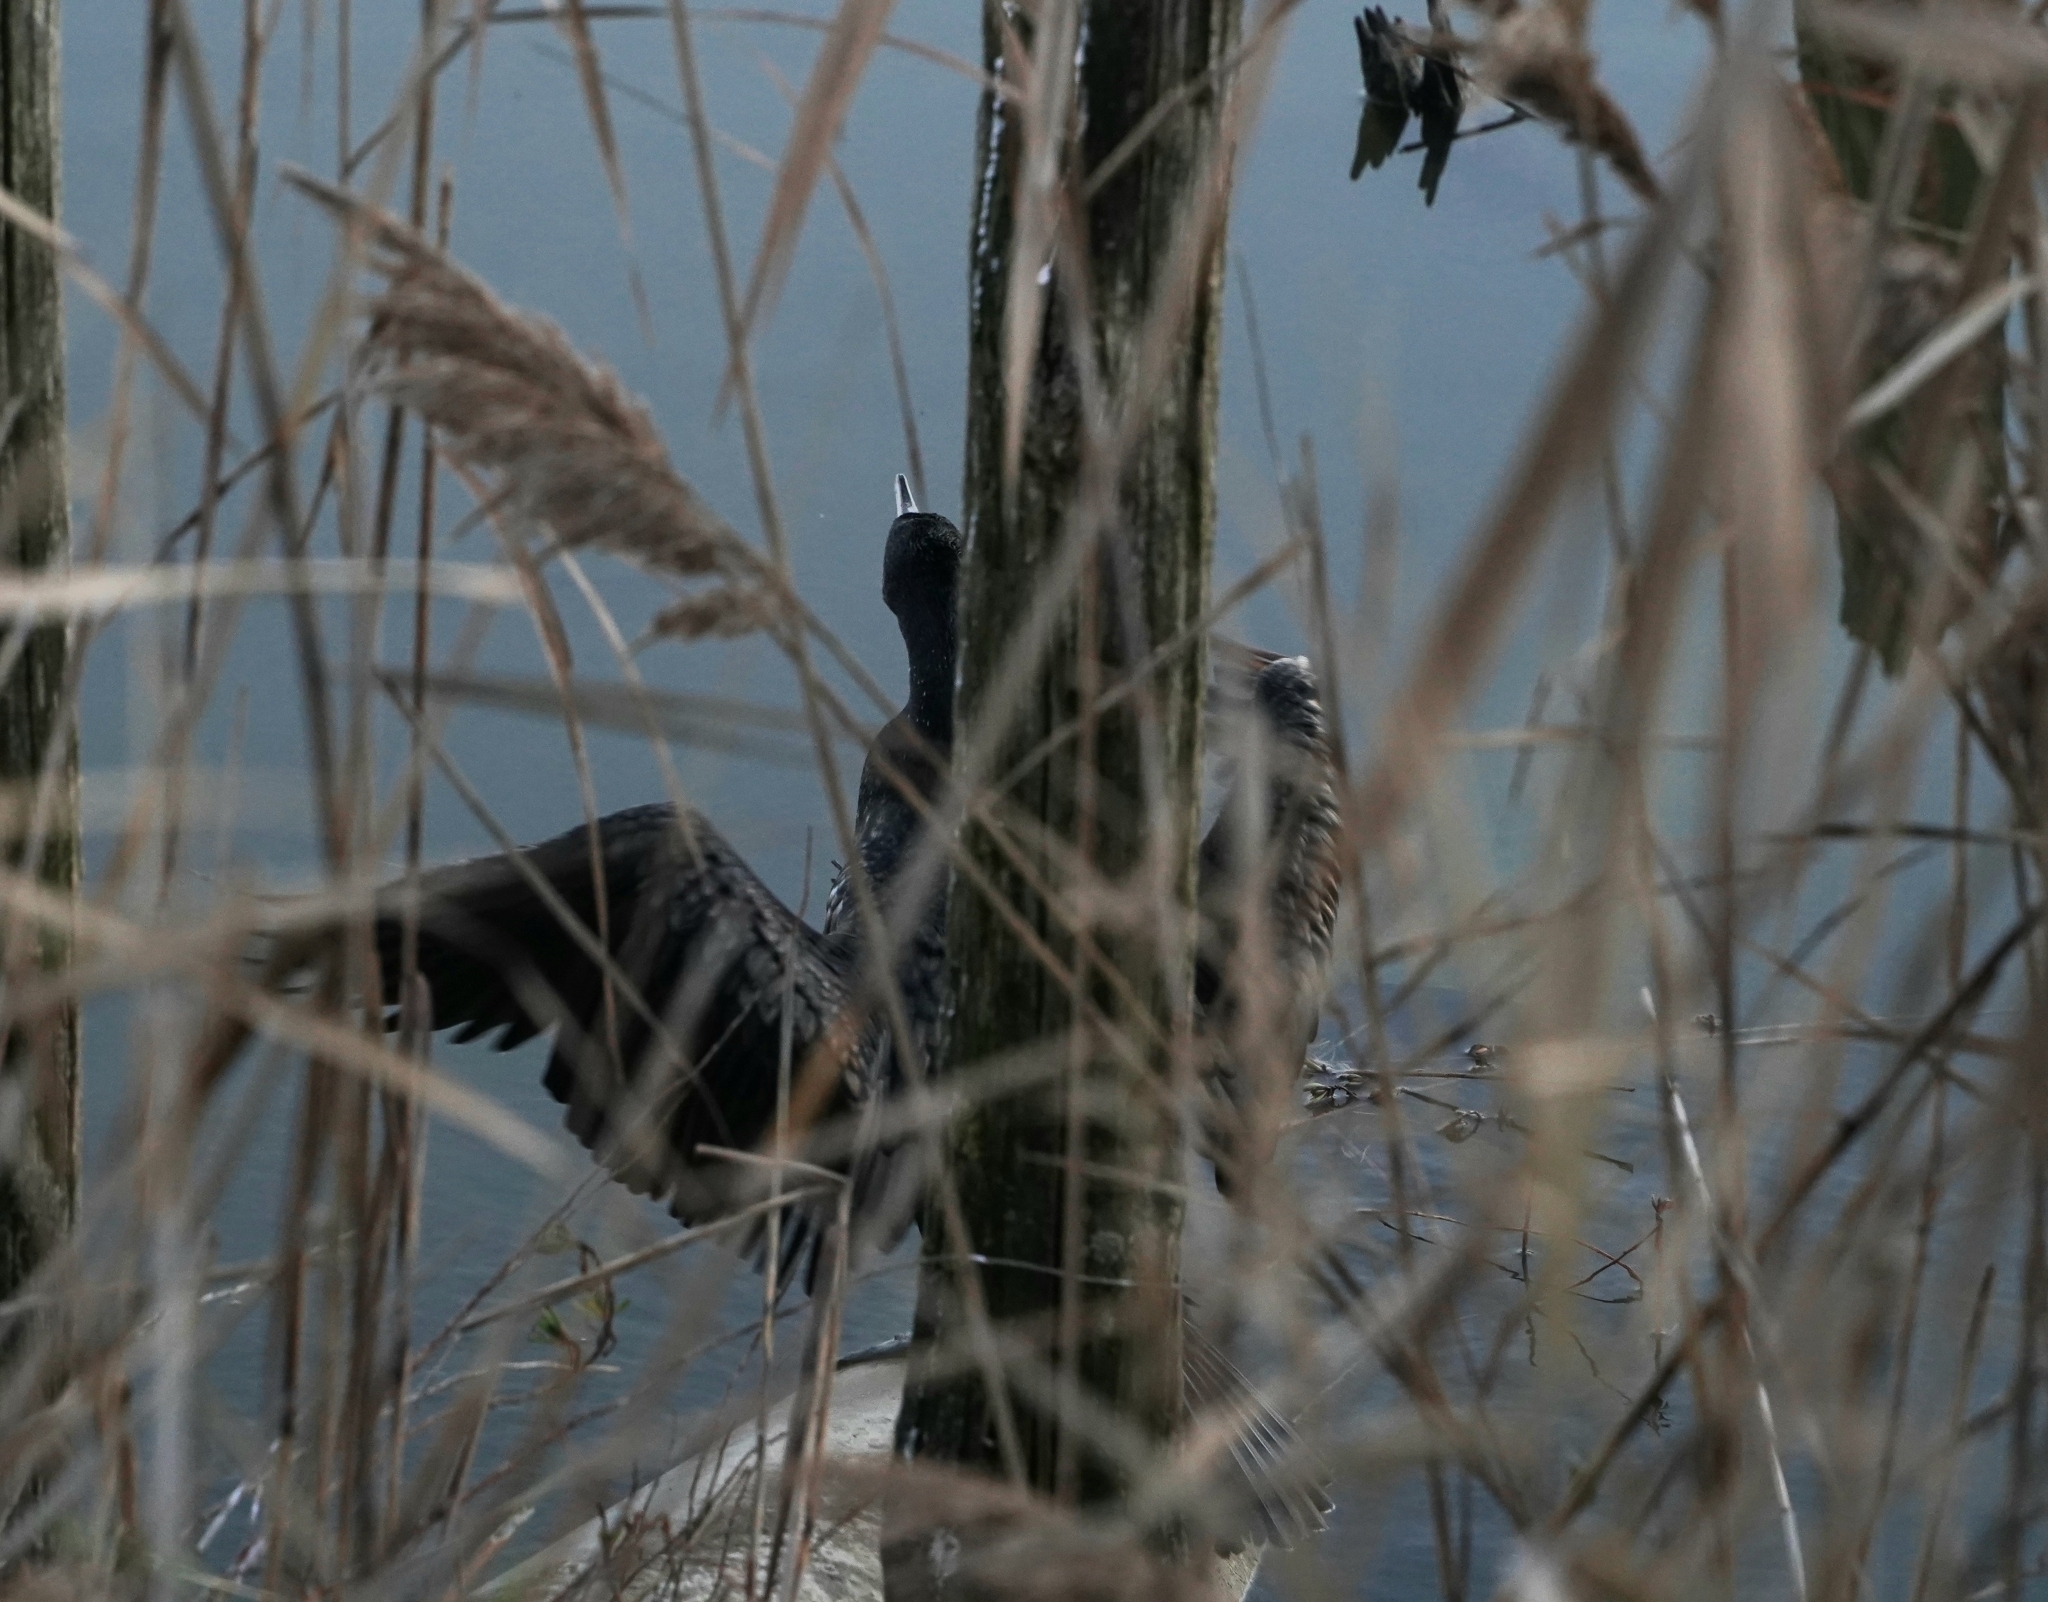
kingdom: Animalia
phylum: Chordata
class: Aves
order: Suliformes
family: Phalacrocoracidae
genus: Phalacrocorax
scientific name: Phalacrocorax carbo
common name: Great cormorant
